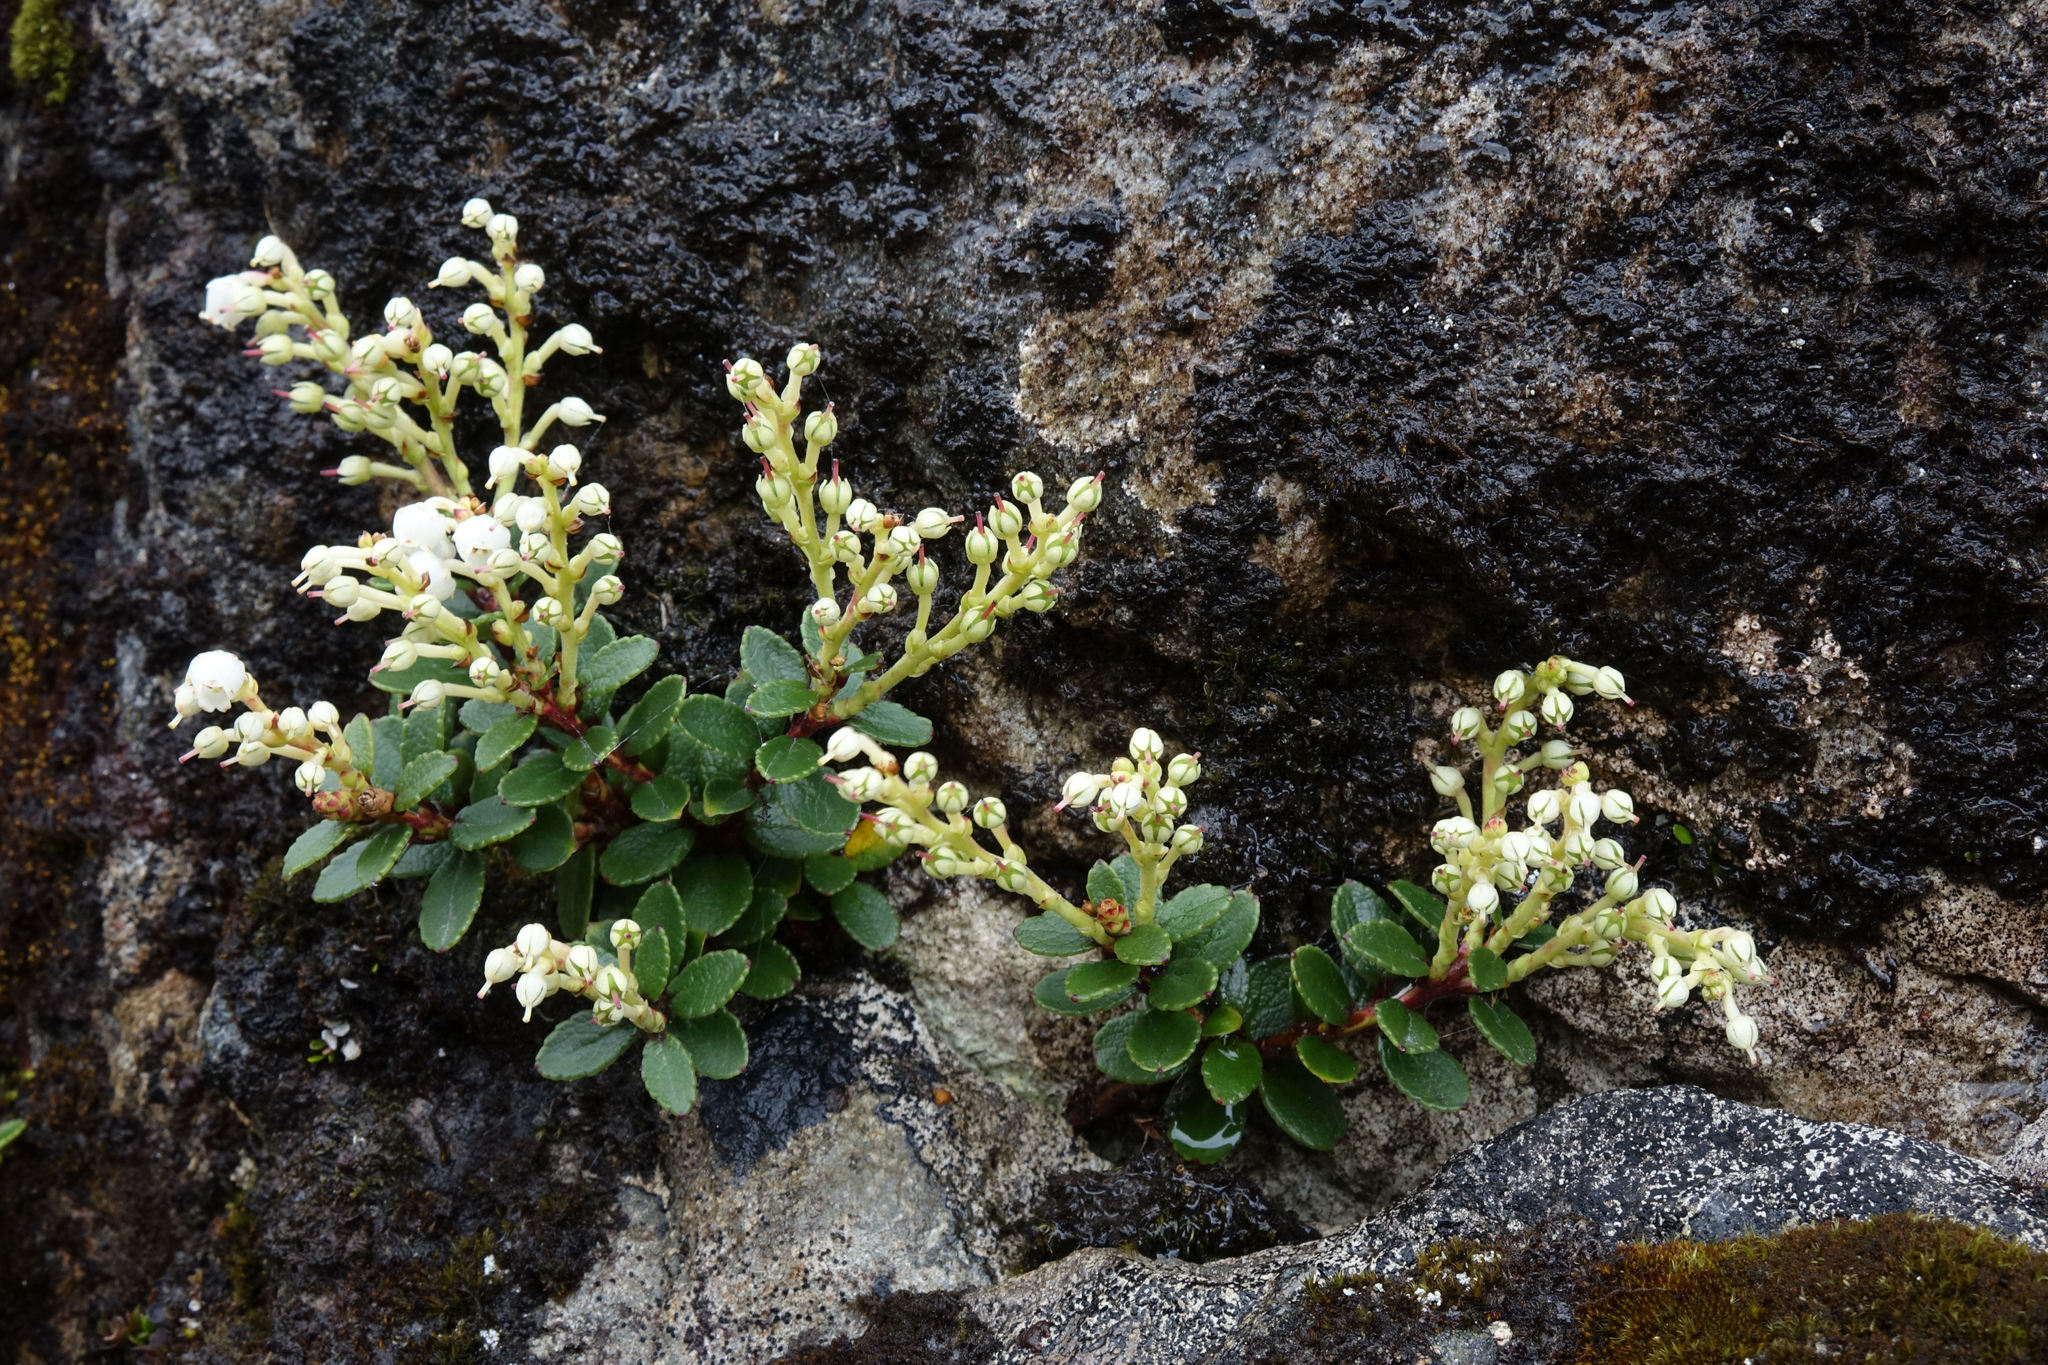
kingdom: Plantae
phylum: Tracheophyta
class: Magnoliopsida
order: Ericales
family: Ericaceae
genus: Gaultheria
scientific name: Gaultheria crassa
